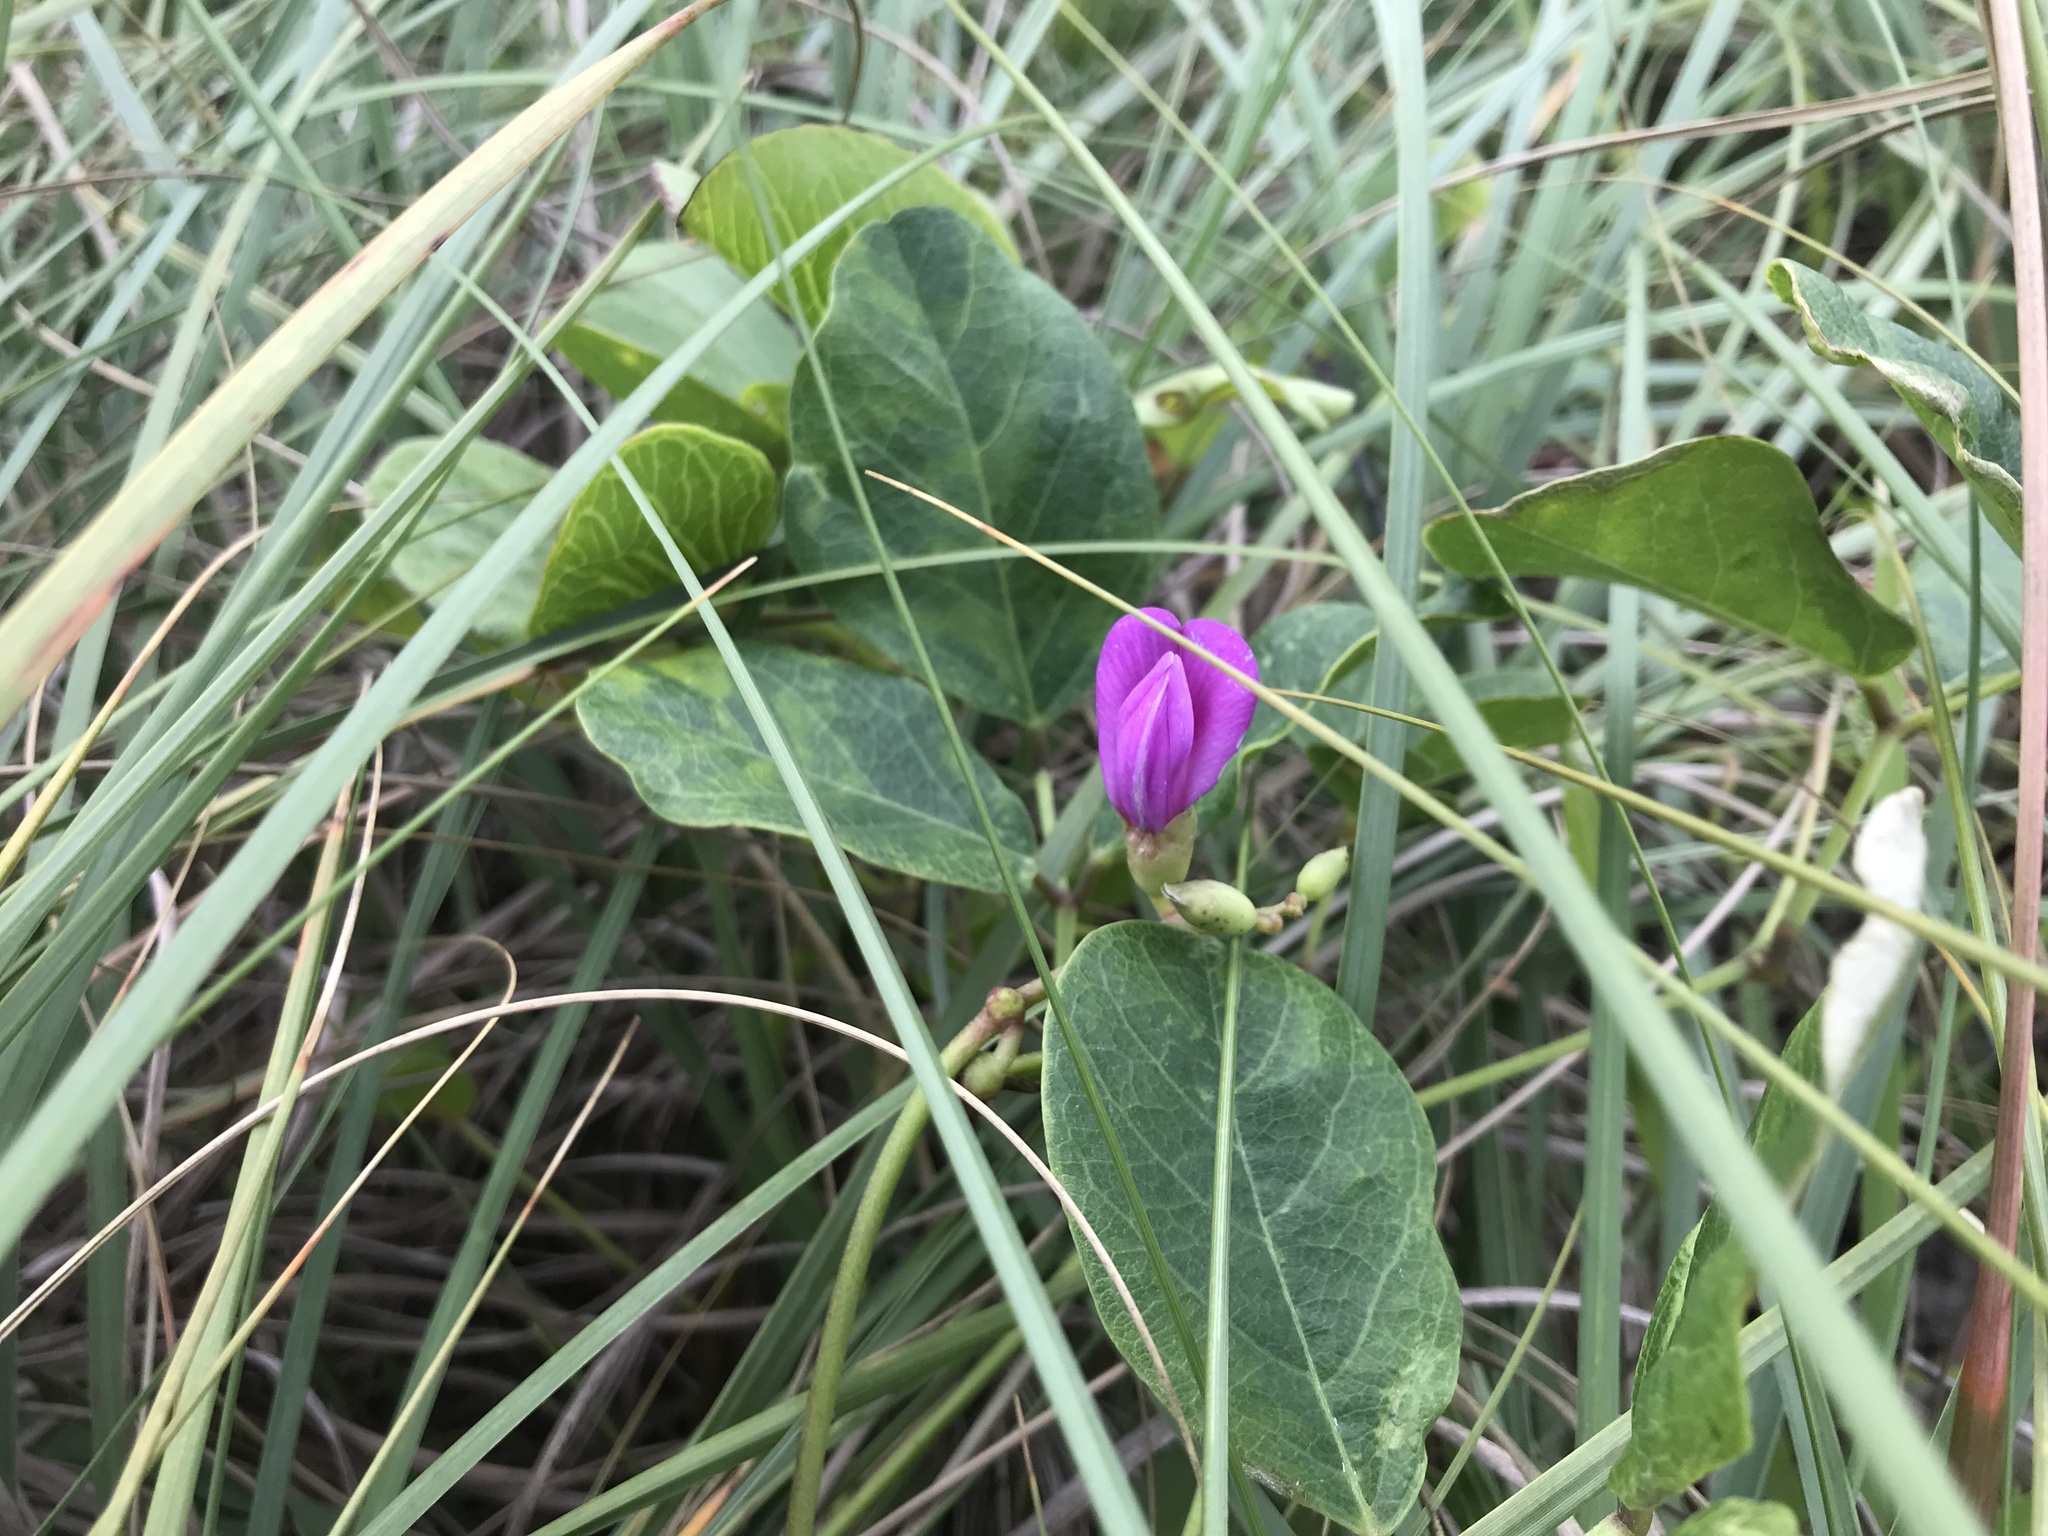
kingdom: Plantae
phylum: Tracheophyta
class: Magnoliopsida
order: Fabales
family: Fabaceae
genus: Canavalia
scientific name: Canavalia rosea
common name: Beach-bean
